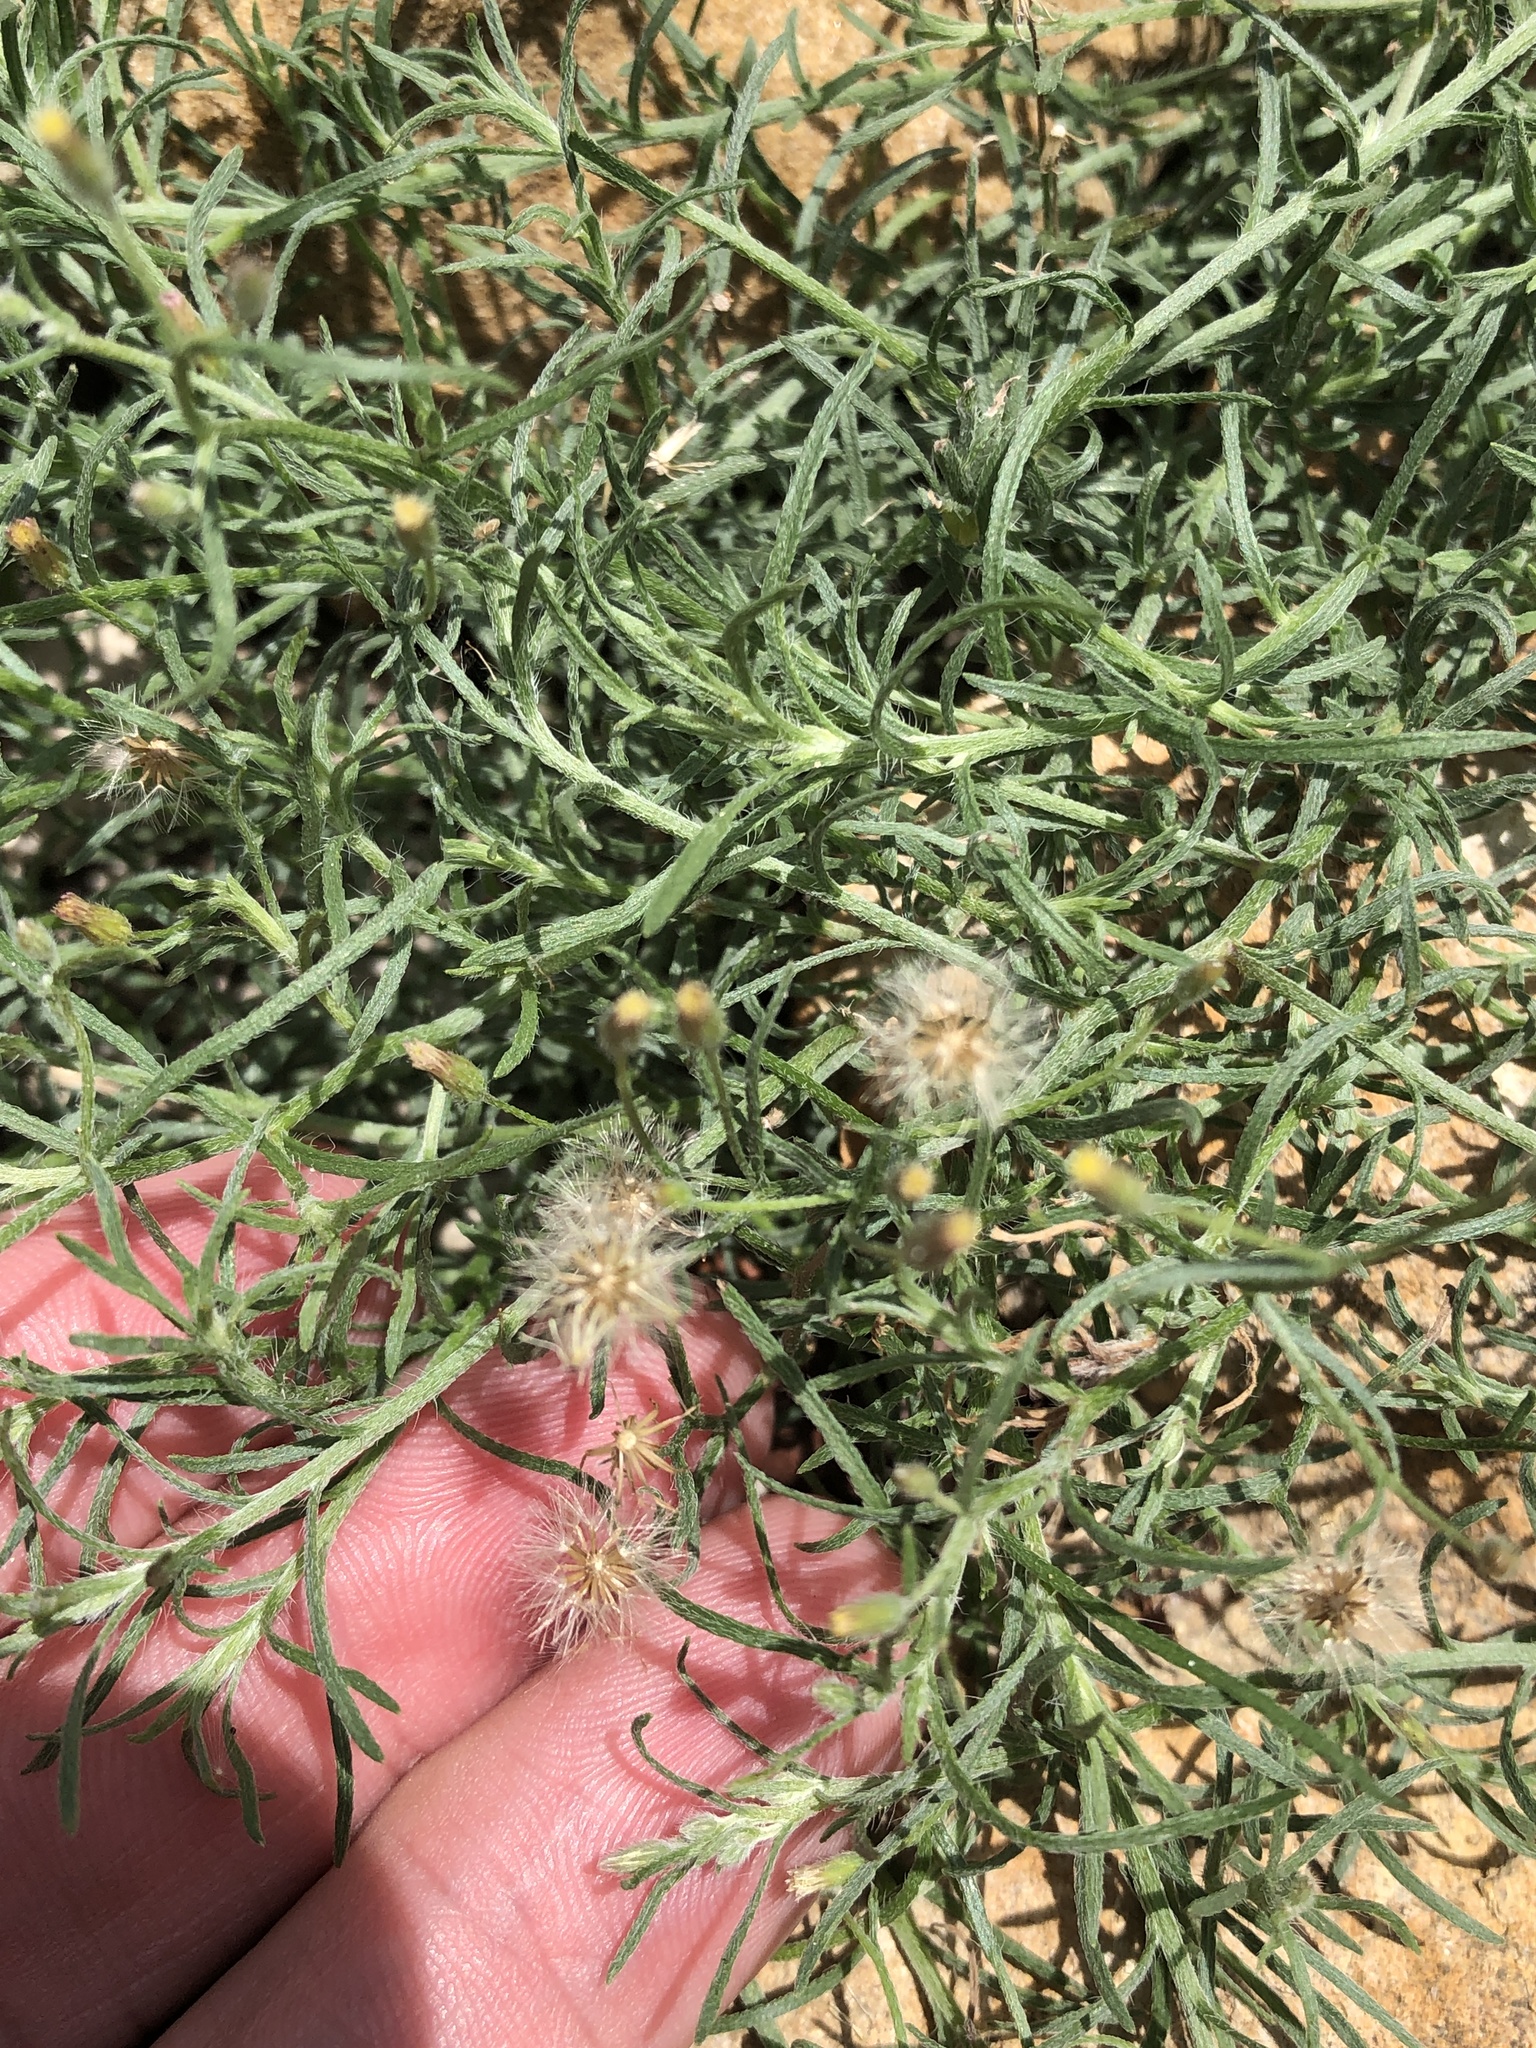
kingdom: Plantae
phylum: Tracheophyta
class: Magnoliopsida
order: Asterales
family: Asteraceae
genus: Erigeron
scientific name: Erigeron divaricatus
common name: Dwarf conyza
